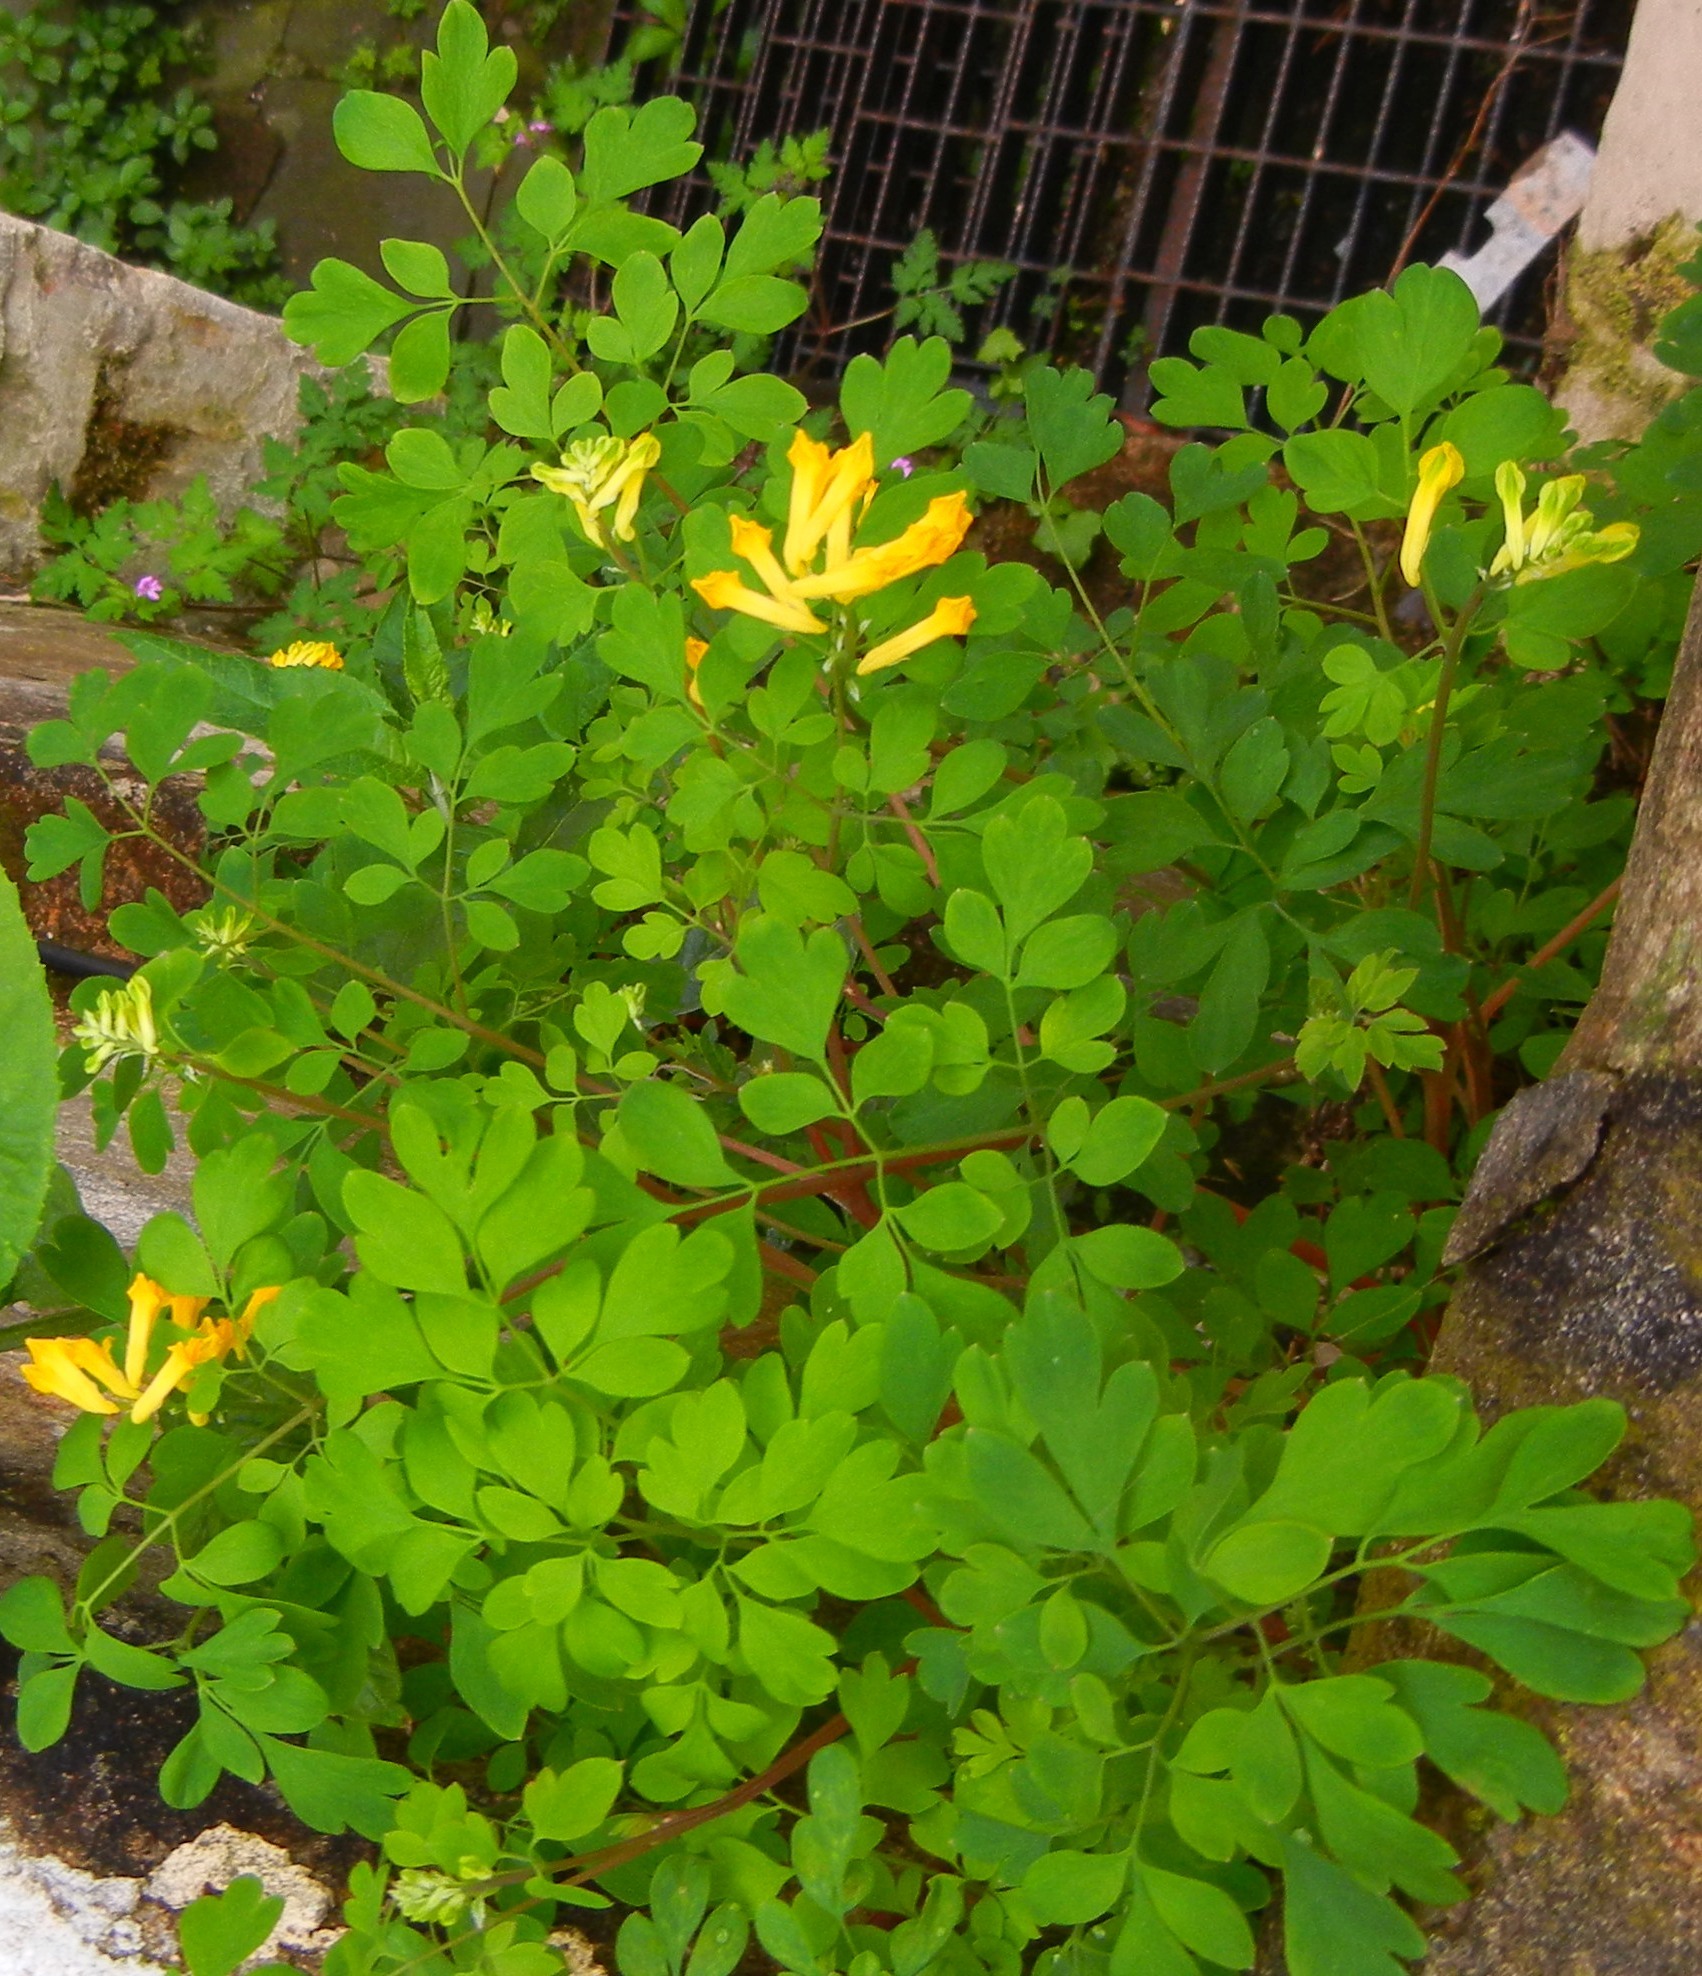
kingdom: Plantae
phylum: Tracheophyta
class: Magnoliopsida
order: Ranunculales
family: Papaveraceae
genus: Pseudofumaria
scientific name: Pseudofumaria lutea
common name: Yellow corydalis
